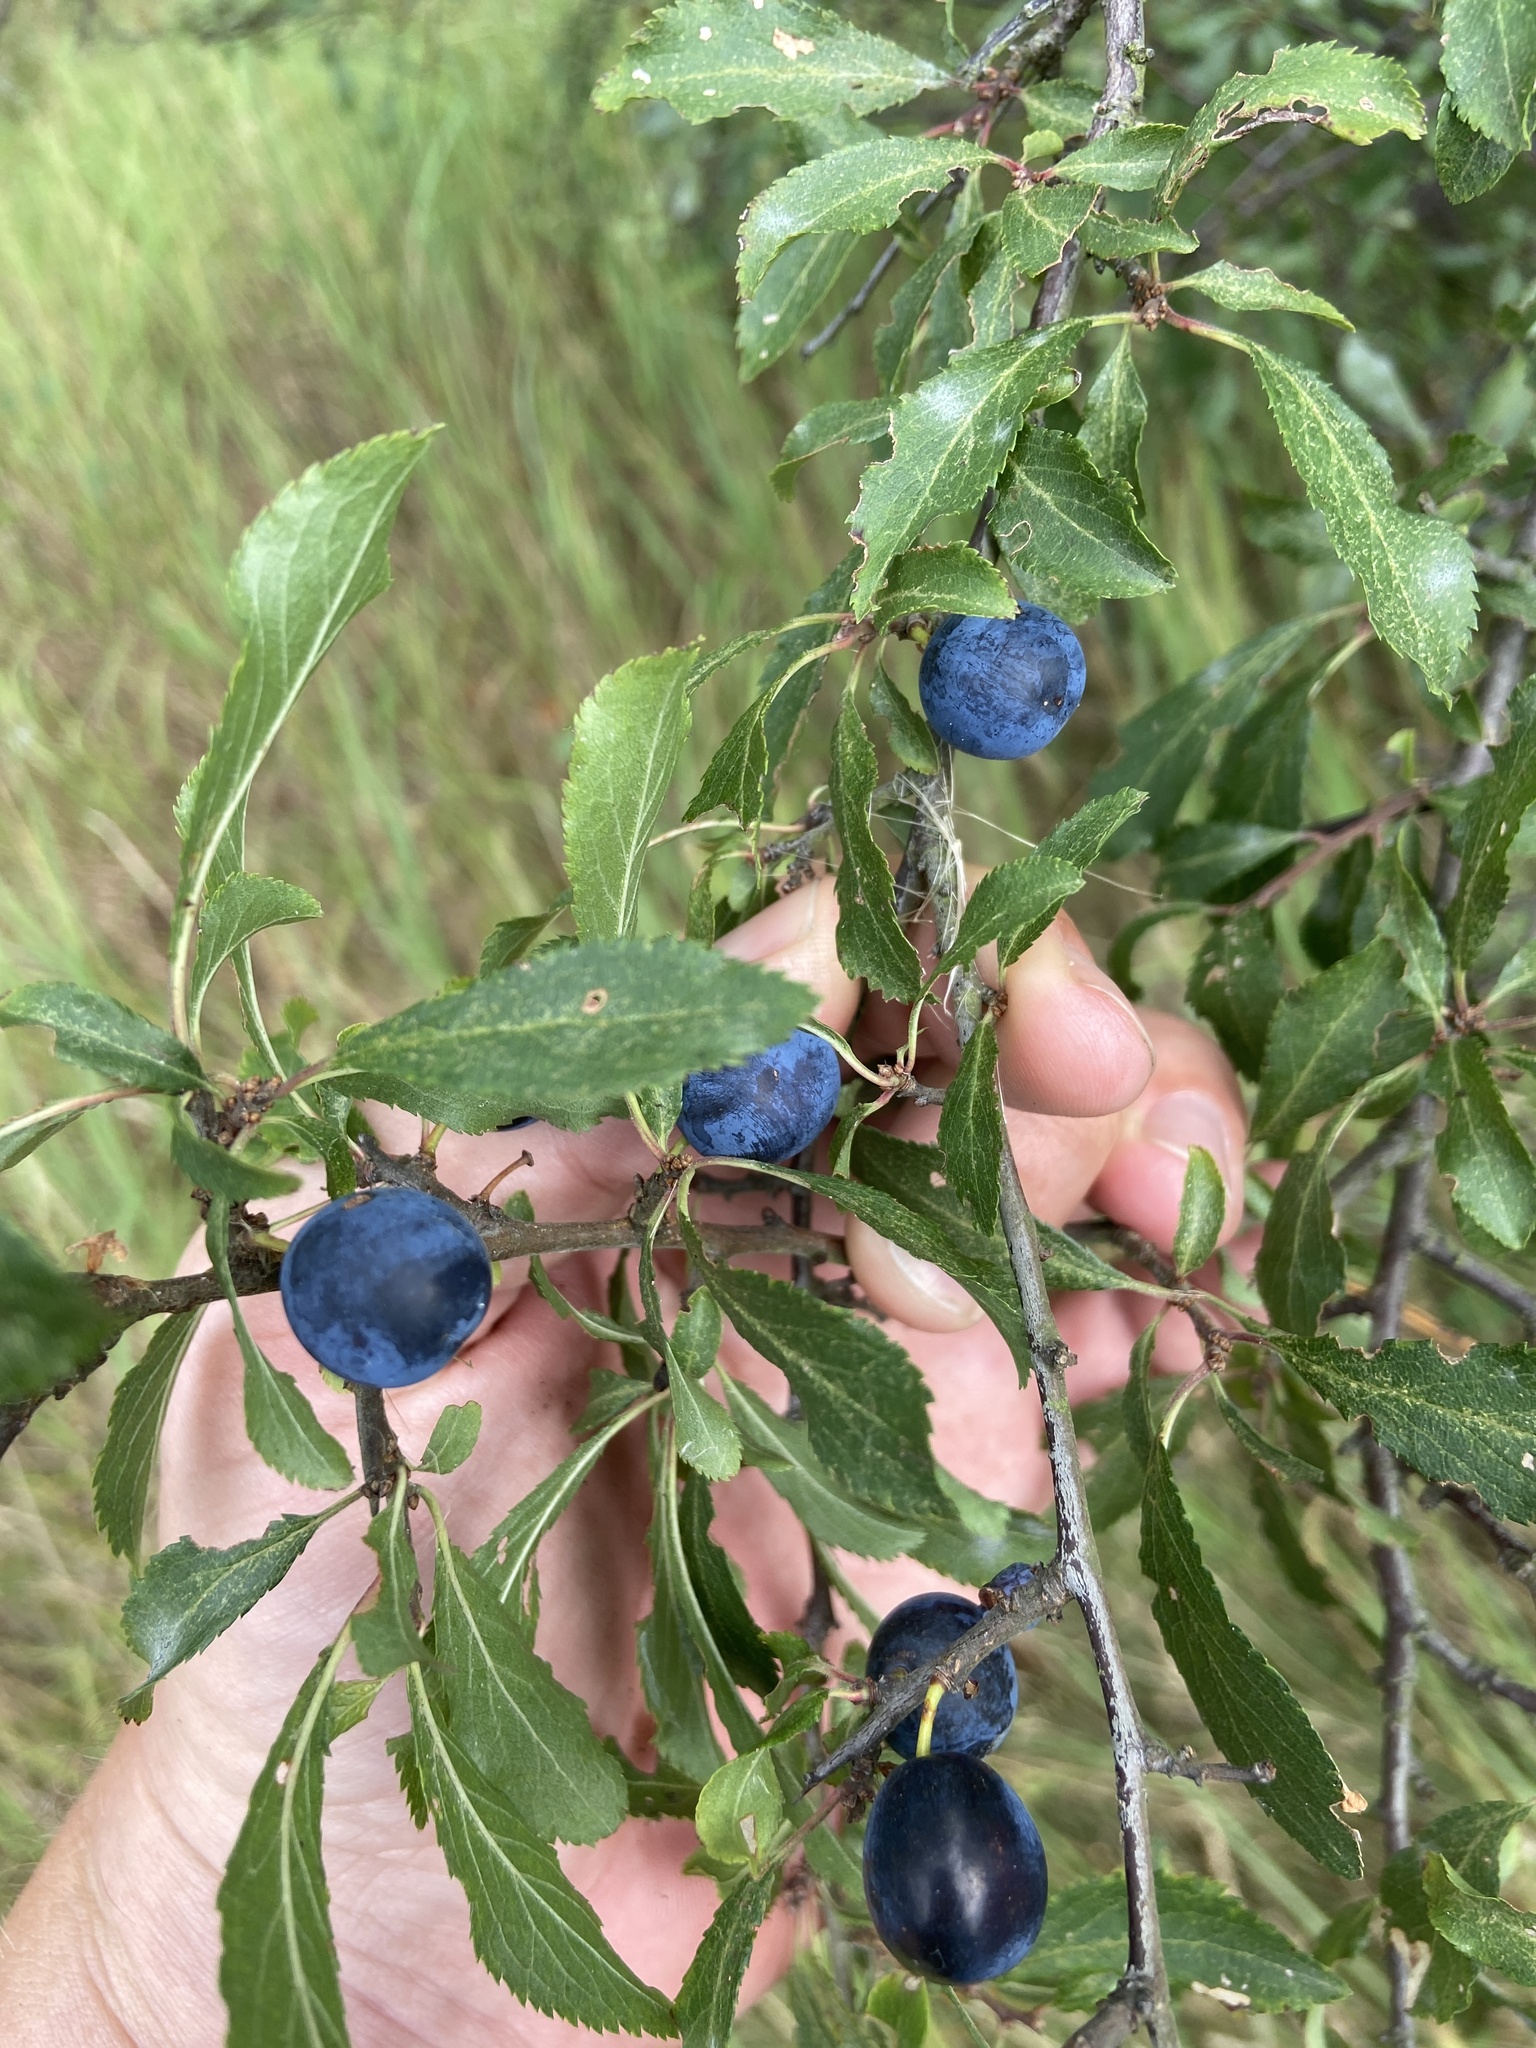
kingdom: Plantae
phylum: Tracheophyta
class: Magnoliopsida
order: Rosales
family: Rosaceae
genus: Prunus
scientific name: Prunus spinosa
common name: Blackthorn
